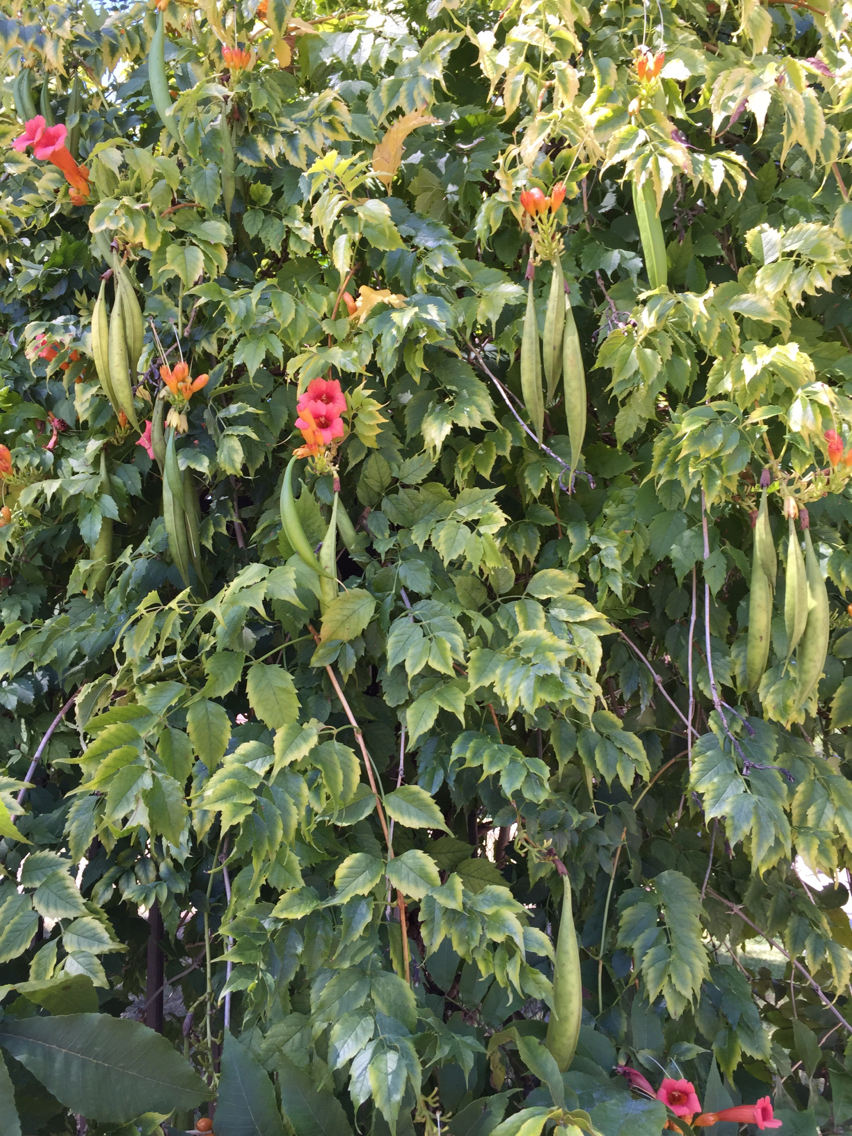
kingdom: Plantae
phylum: Tracheophyta
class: Magnoliopsida
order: Lamiales
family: Bignoniaceae
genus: Campsis
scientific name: Campsis radicans
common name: Trumpet-creeper
